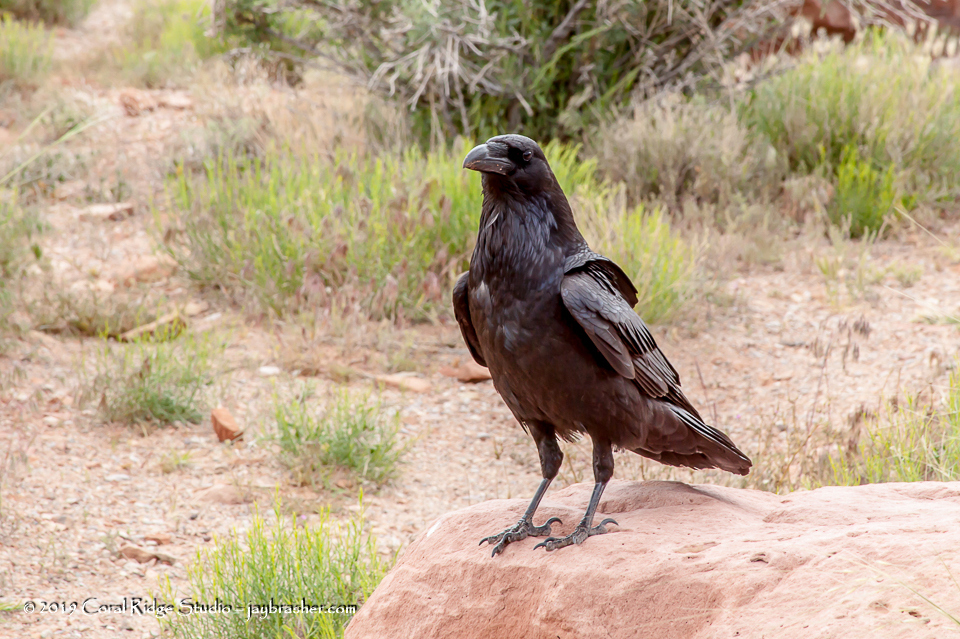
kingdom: Animalia
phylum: Chordata
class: Aves
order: Passeriformes
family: Corvidae
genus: Corvus
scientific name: Corvus corax
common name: Common raven
